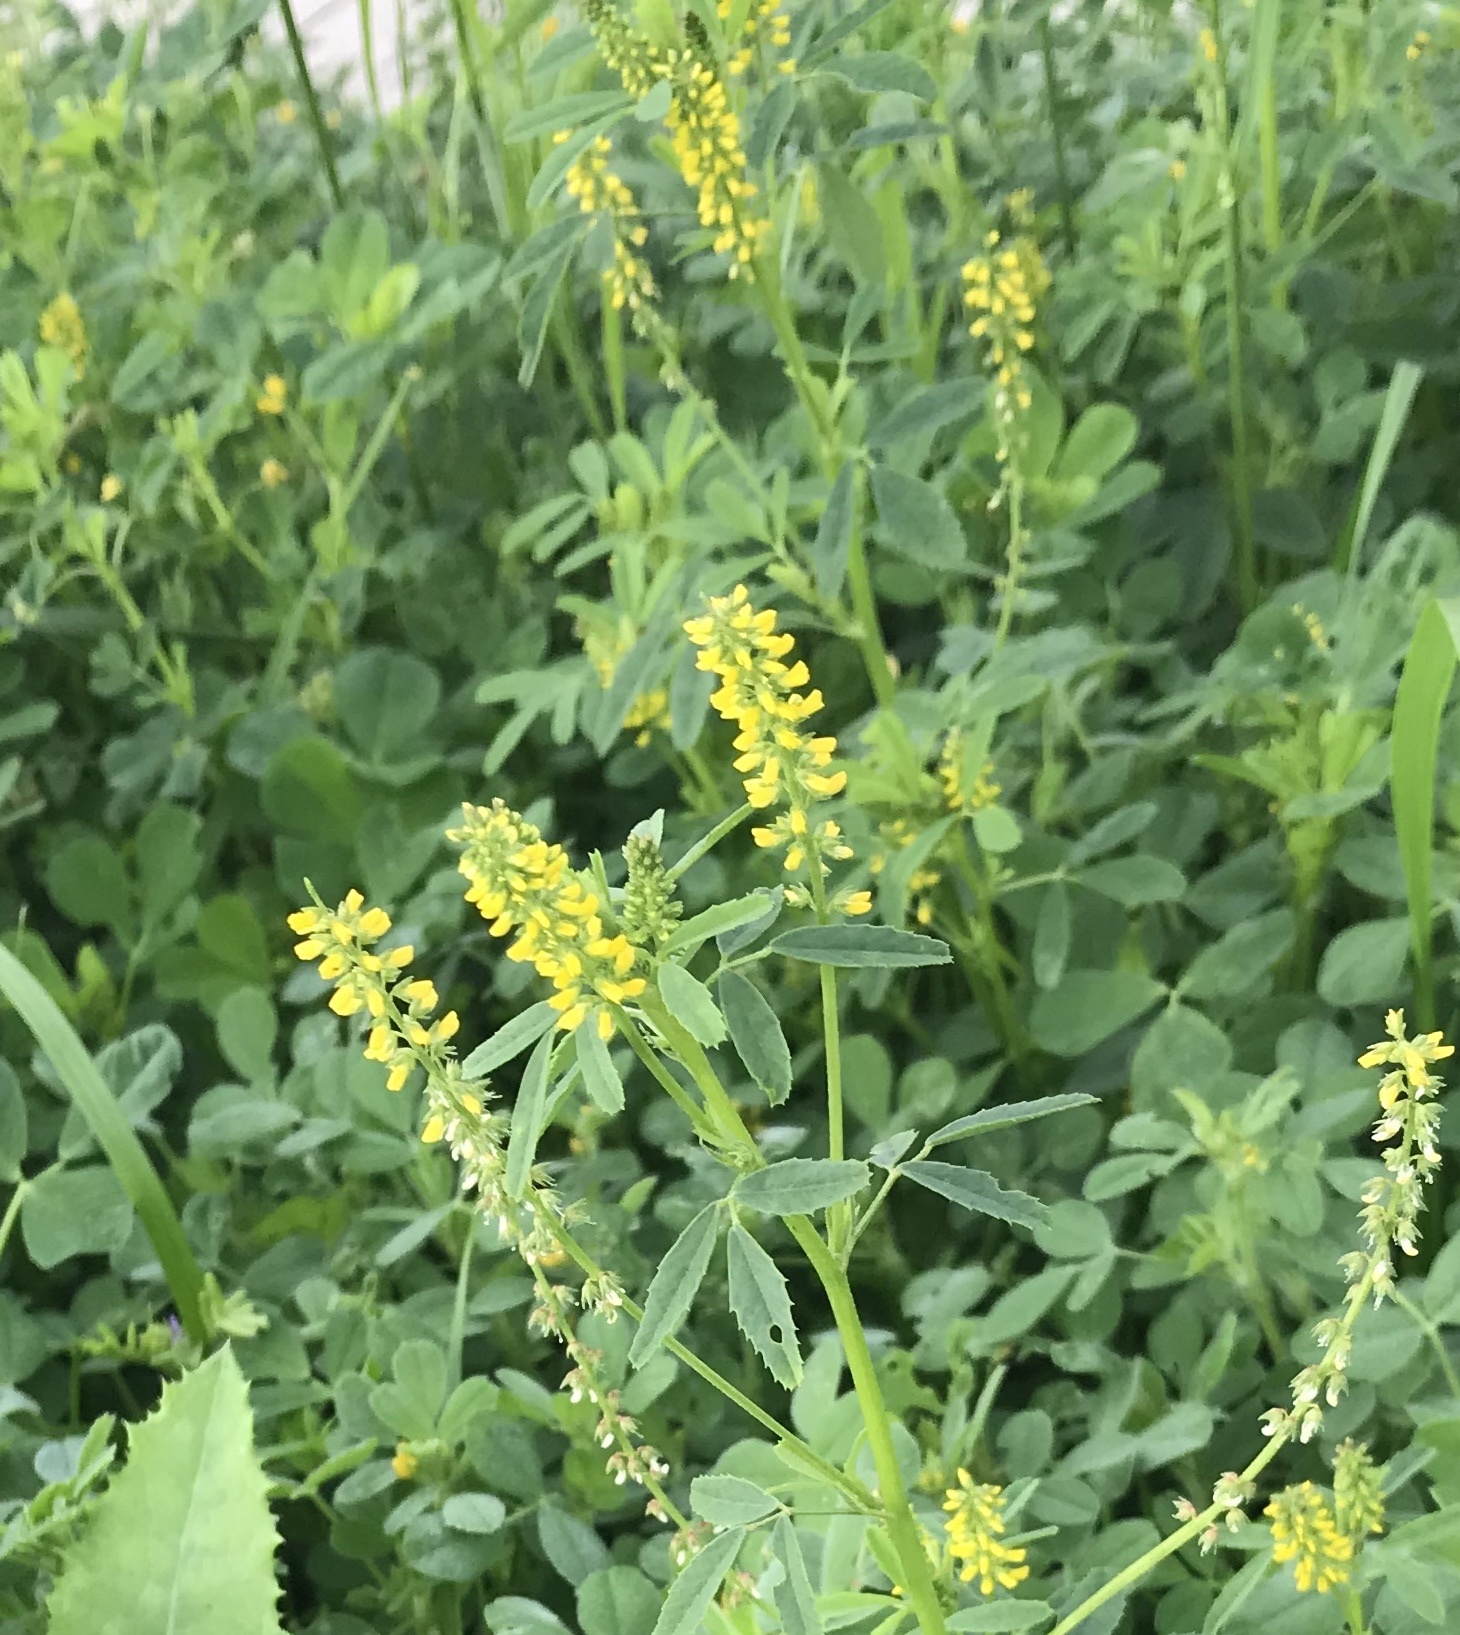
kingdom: Plantae
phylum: Tracheophyta
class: Magnoliopsida
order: Fabales
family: Fabaceae
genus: Melilotus
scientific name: Melilotus indicus
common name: Small melilot
